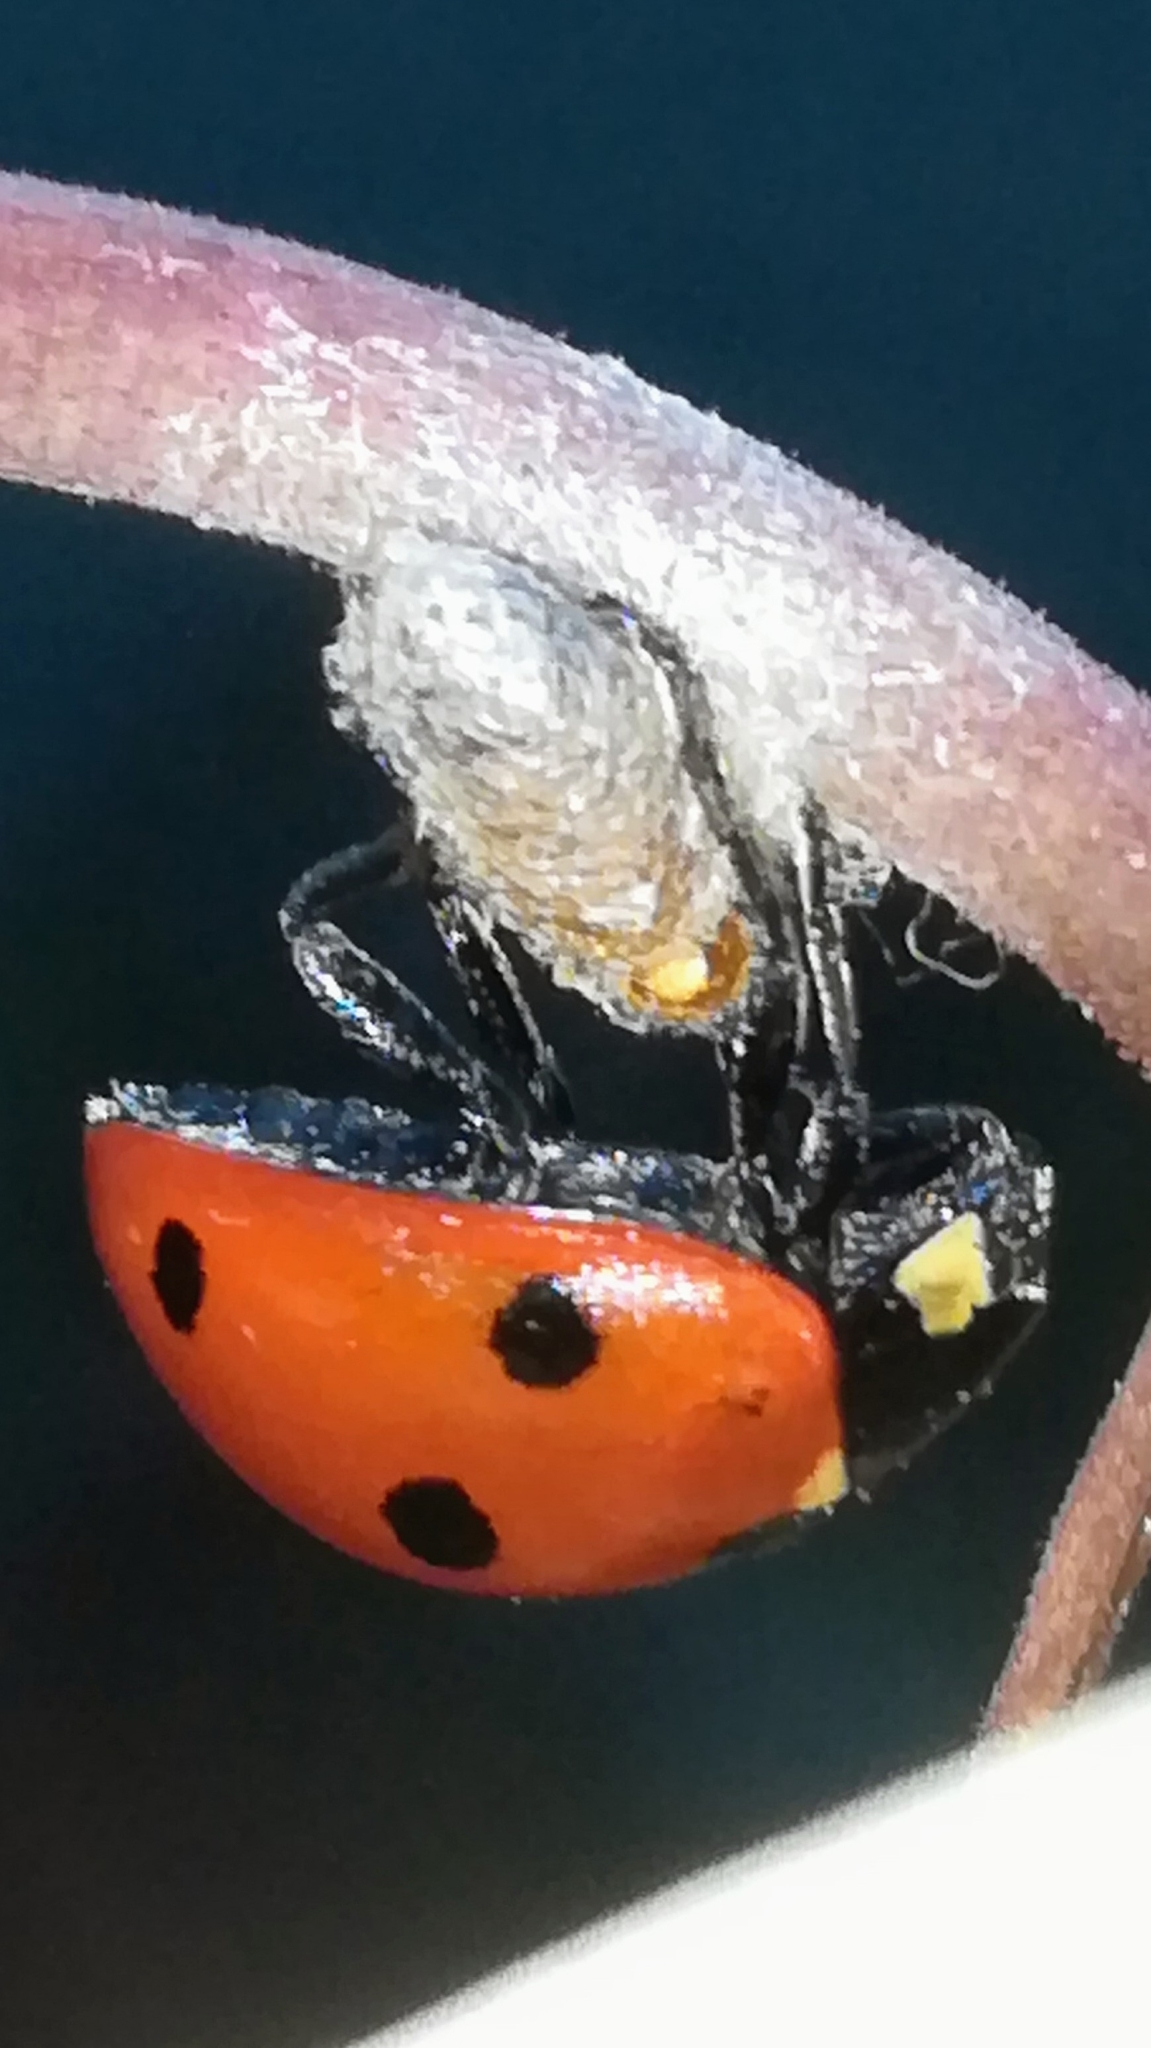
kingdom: Animalia
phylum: Arthropoda
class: Insecta
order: Hymenoptera
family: Braconidae
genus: Dinocampus
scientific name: Dinocampus coccinellae
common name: Braconid wasp
